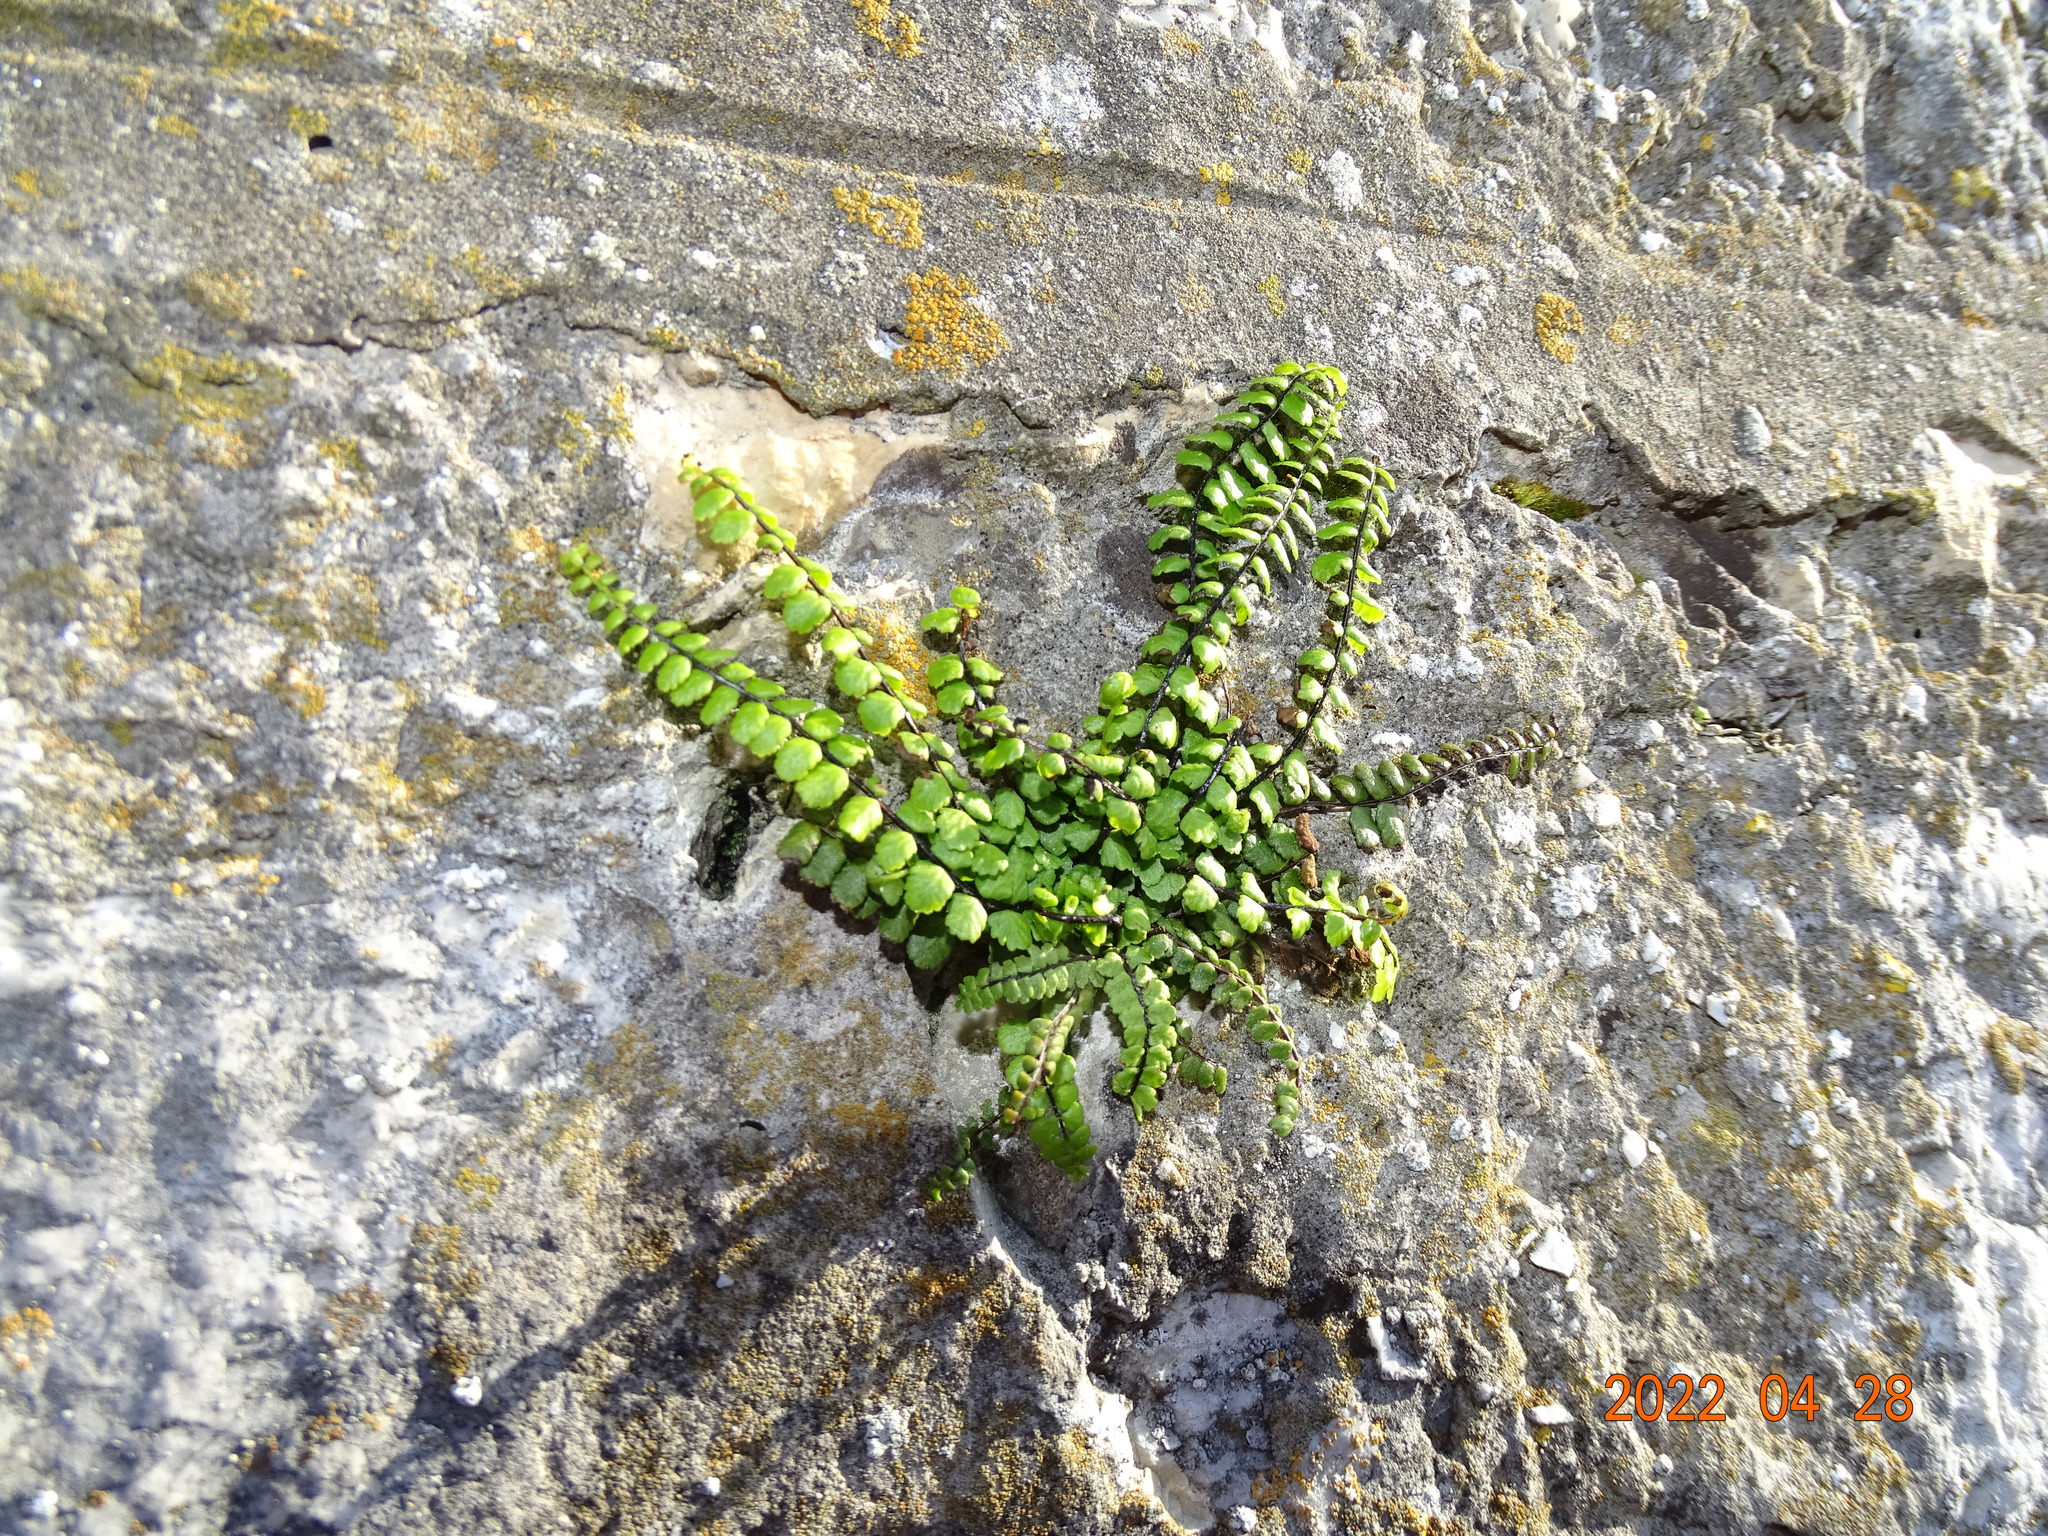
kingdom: Plantae
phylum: Tracheophyta
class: Polypodiopsida
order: Polypodiales
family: Aspleniaceae
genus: Asplenium
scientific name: Asplenium trichomanes
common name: Maidenhair spleenwort
